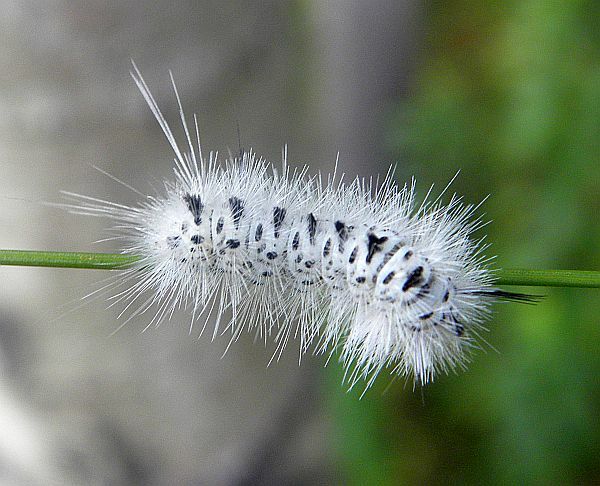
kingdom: Animalia
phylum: Arthropoda
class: Insecta
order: Lepidoptera
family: Erebidae
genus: Lophocampa
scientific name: Lophocampa caryae
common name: Hickory tussock moth
